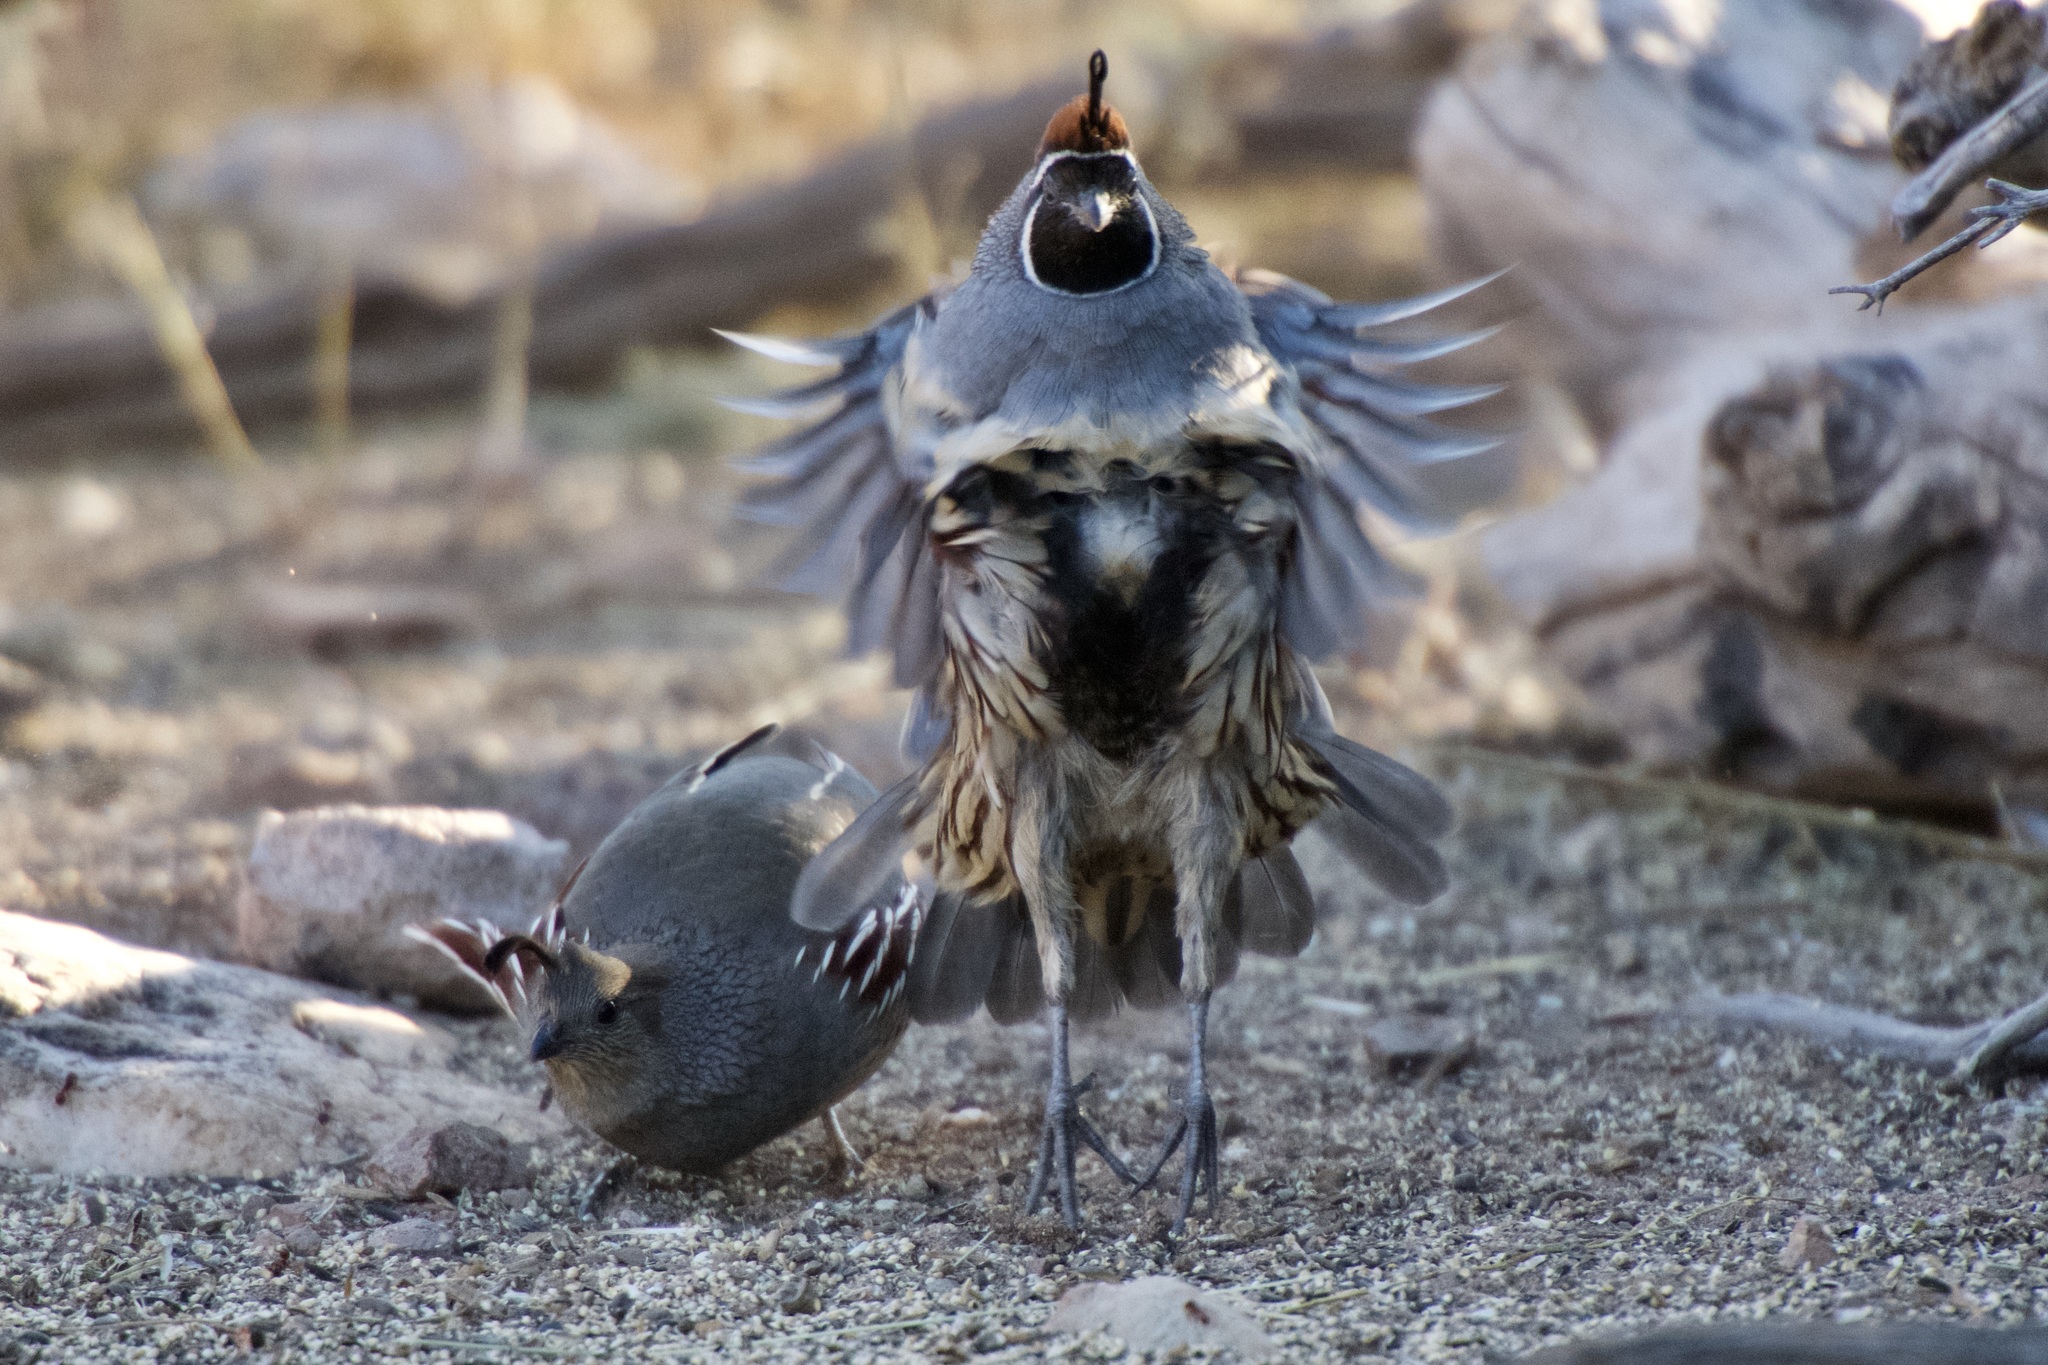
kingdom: Animalia
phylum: Chordata
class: Aves
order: Galliformes
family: Odontophoridae
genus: Callipepla
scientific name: Callipepla gambelii
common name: Gambel's quail
